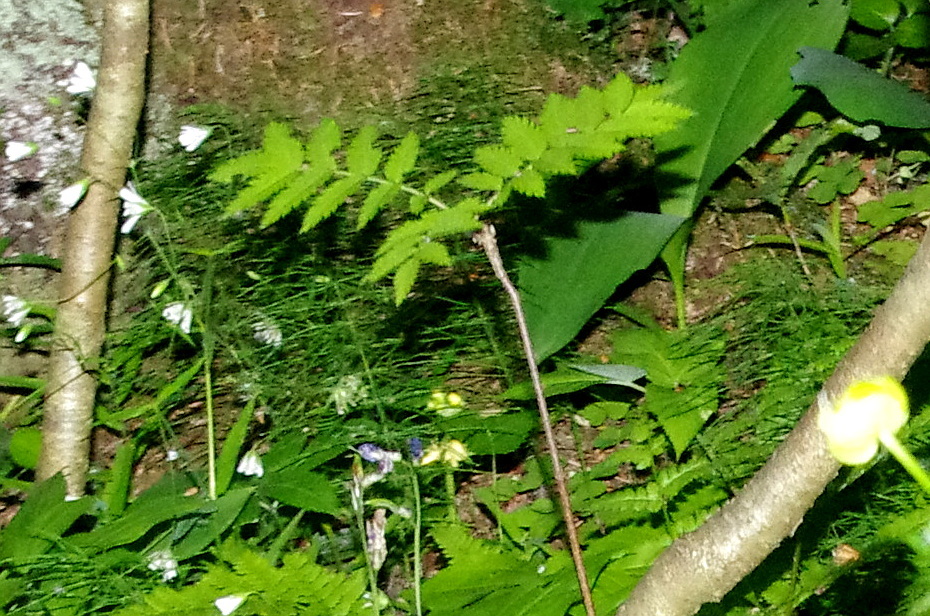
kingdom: Plantae
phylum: Tracheophyta
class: Magnoliopsida
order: Rosales
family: Rosaceae
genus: Sorbus
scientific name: Sorbus aucuparia
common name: Rowan
